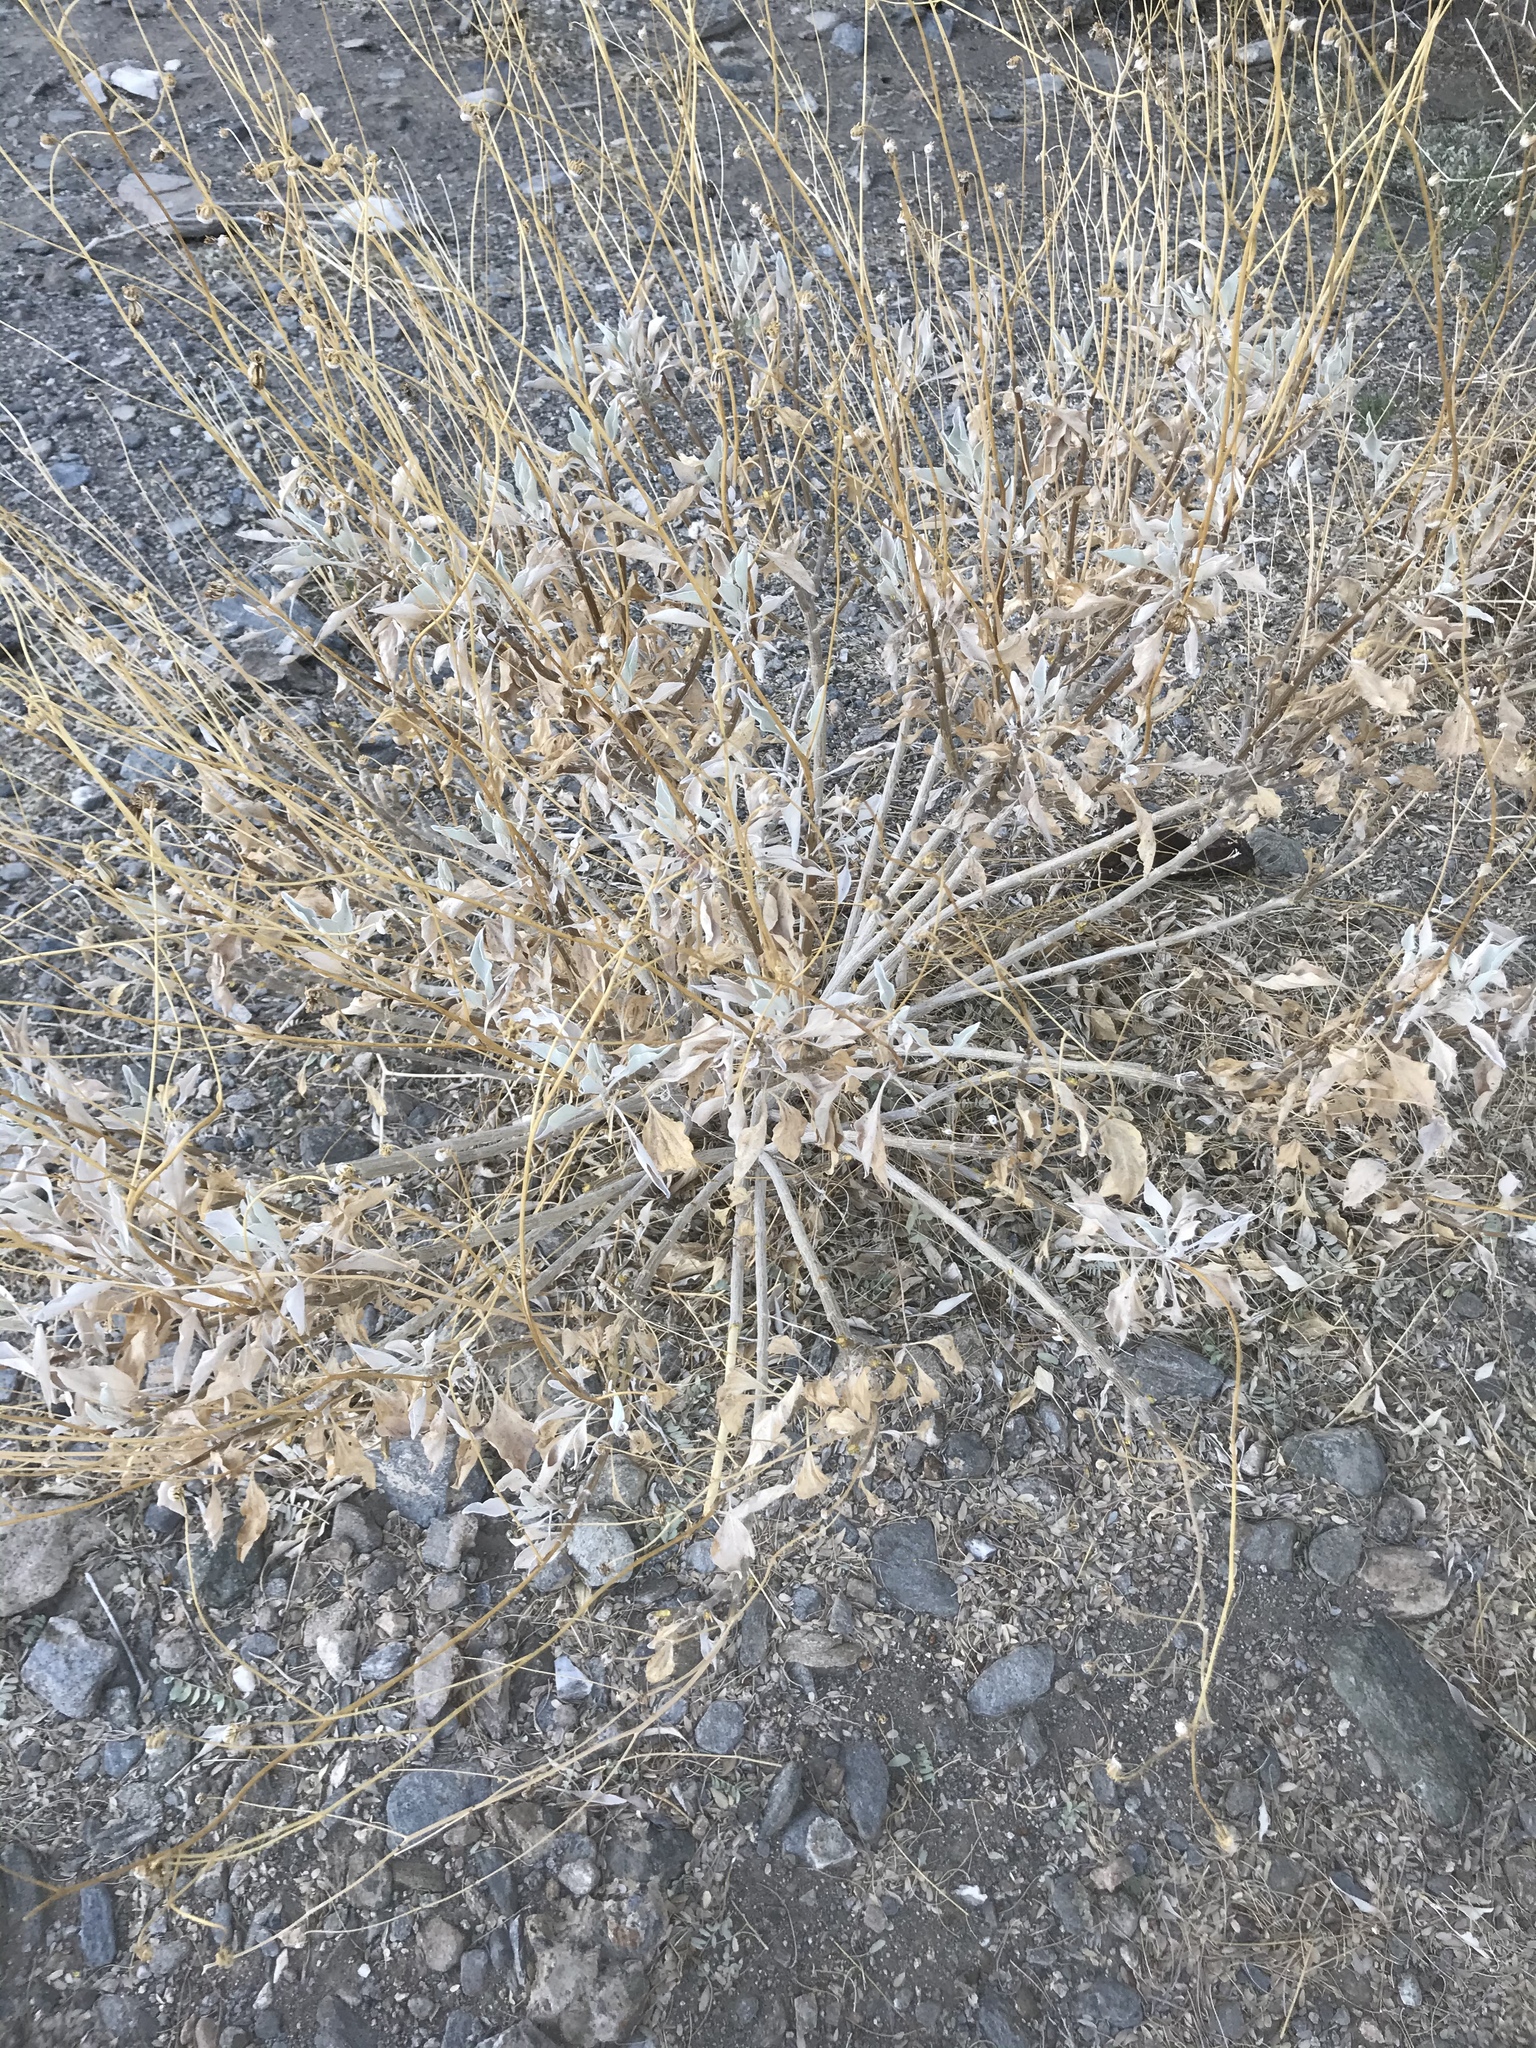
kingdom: Plantae
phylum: Tracheophyta
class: Magnoliopsida
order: Asterales
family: Asteraceae
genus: Encelia
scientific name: Encelia farinosa
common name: Brittlebush
